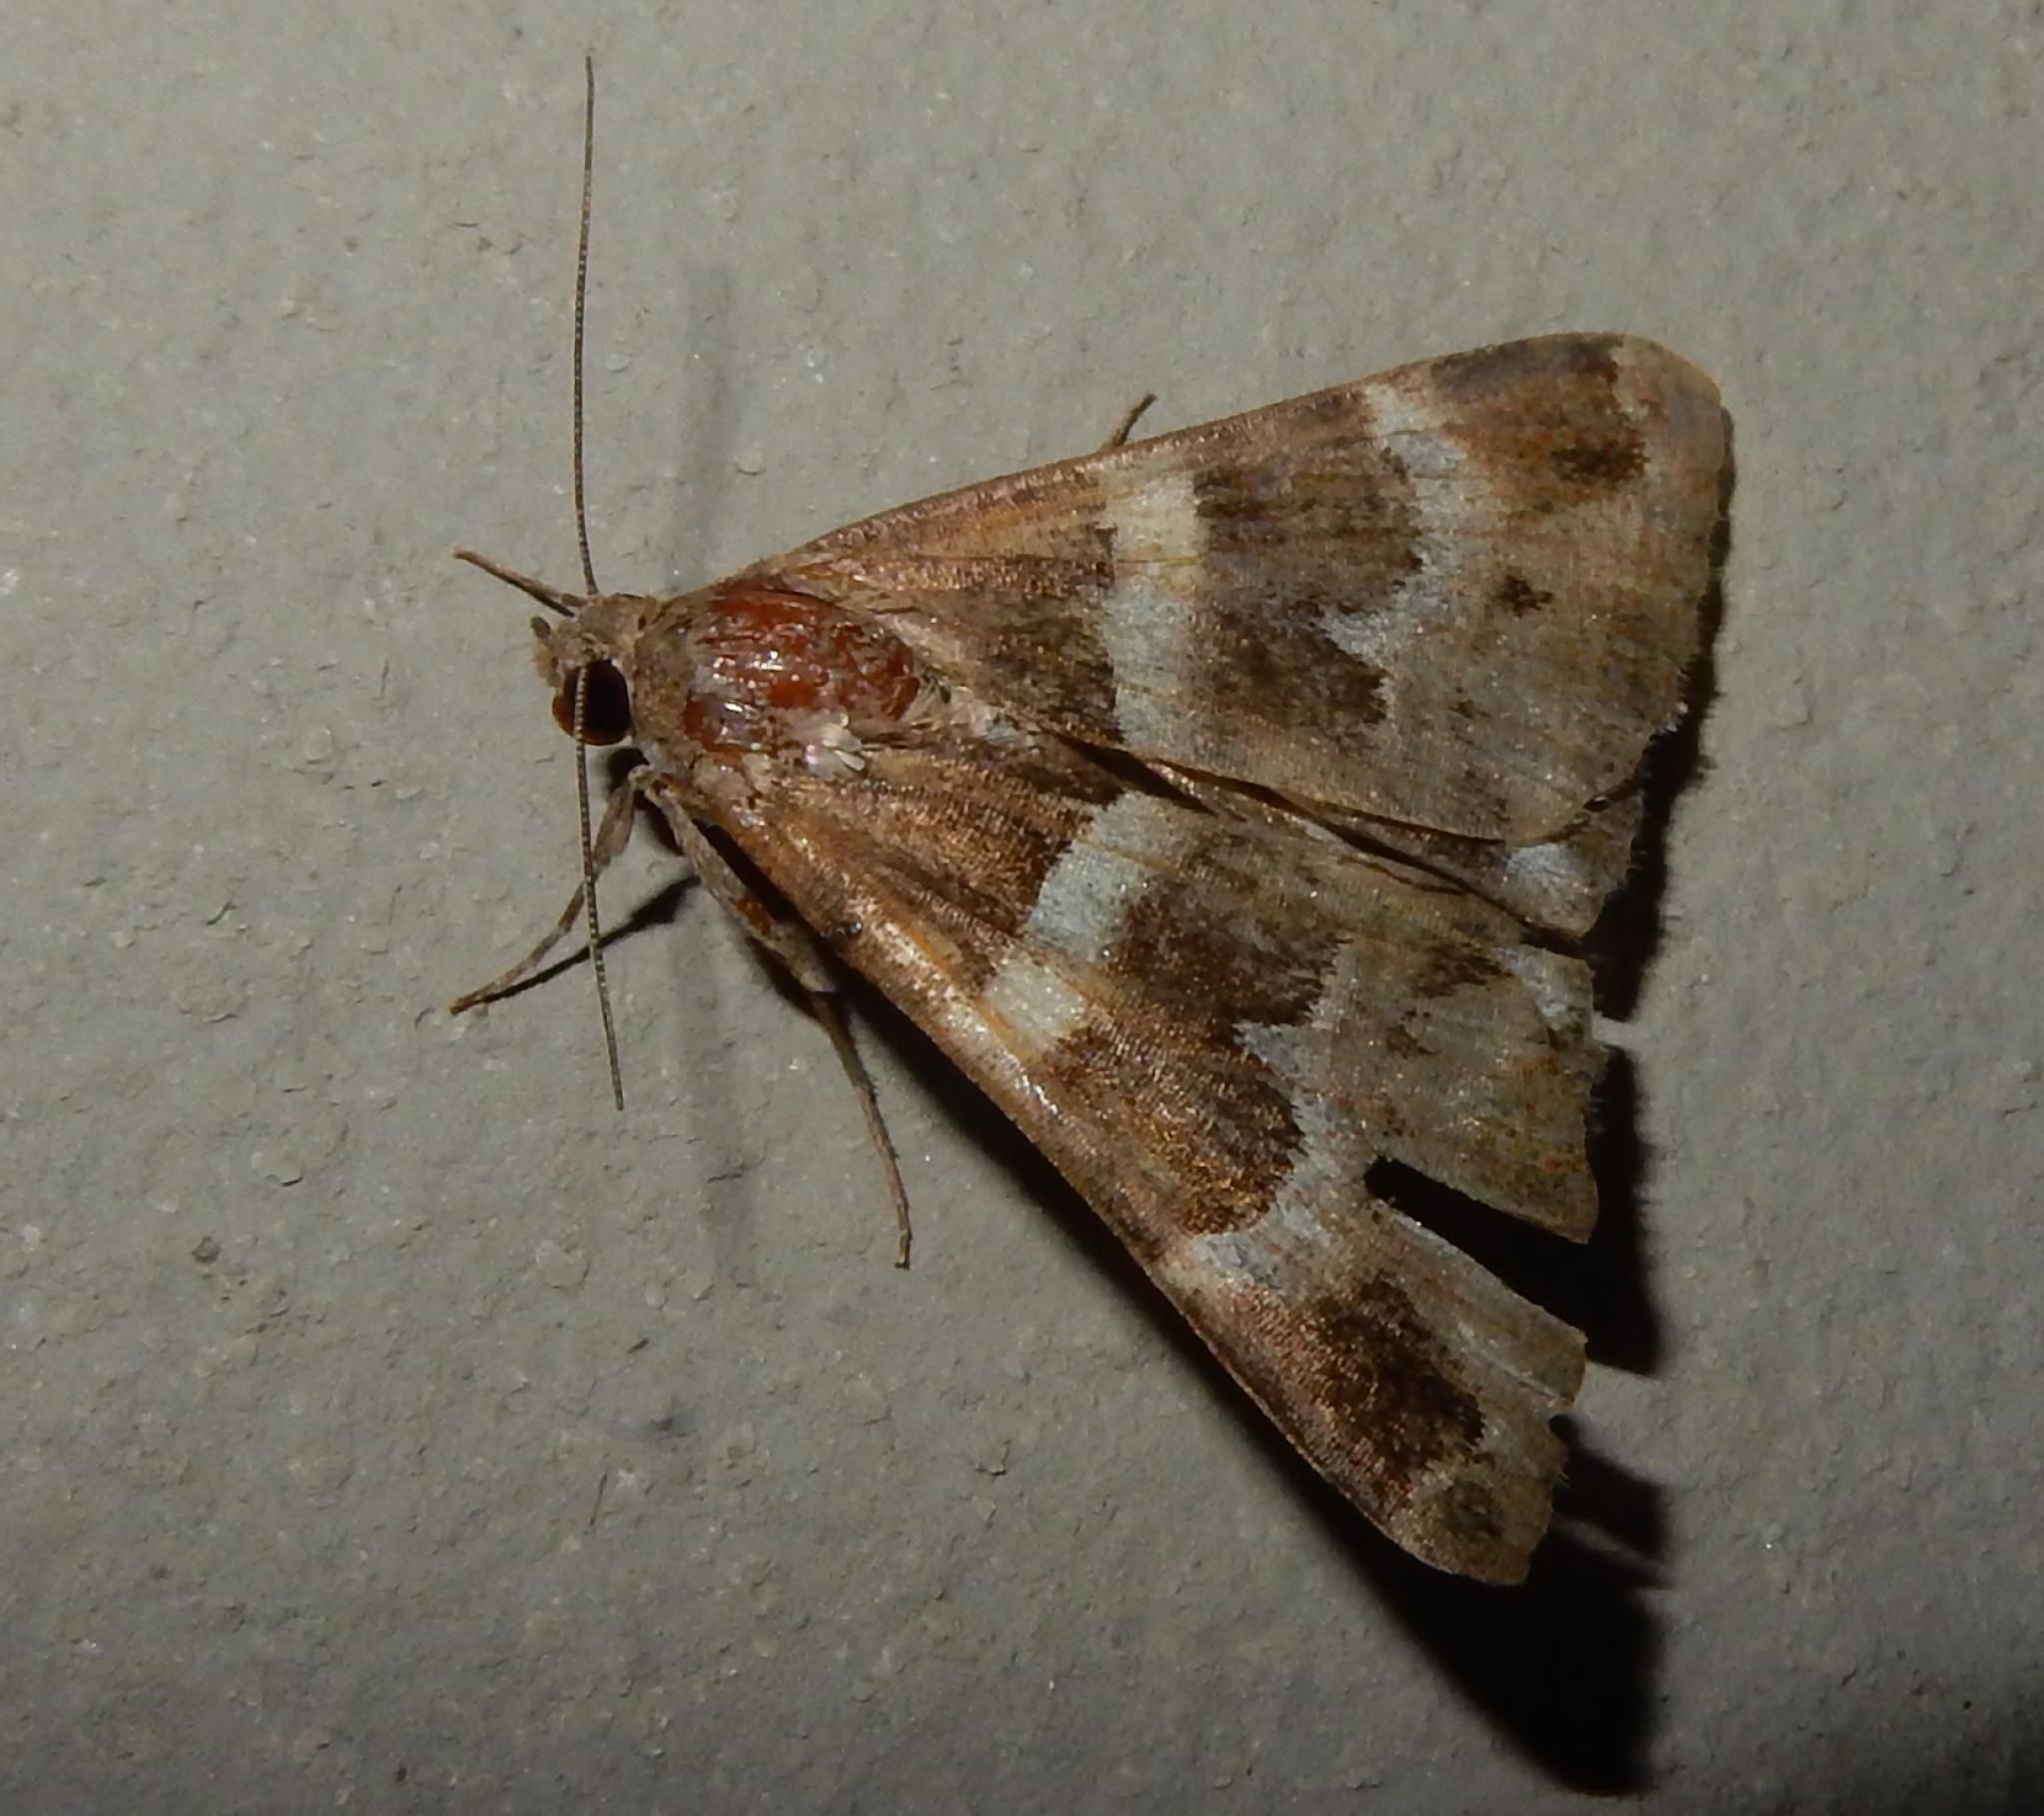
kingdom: Animalia
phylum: Arthropoda
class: Insecta
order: Lepidoptera
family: Erebidae
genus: Grammodes
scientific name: Grammodes stolida
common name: Geometrician
